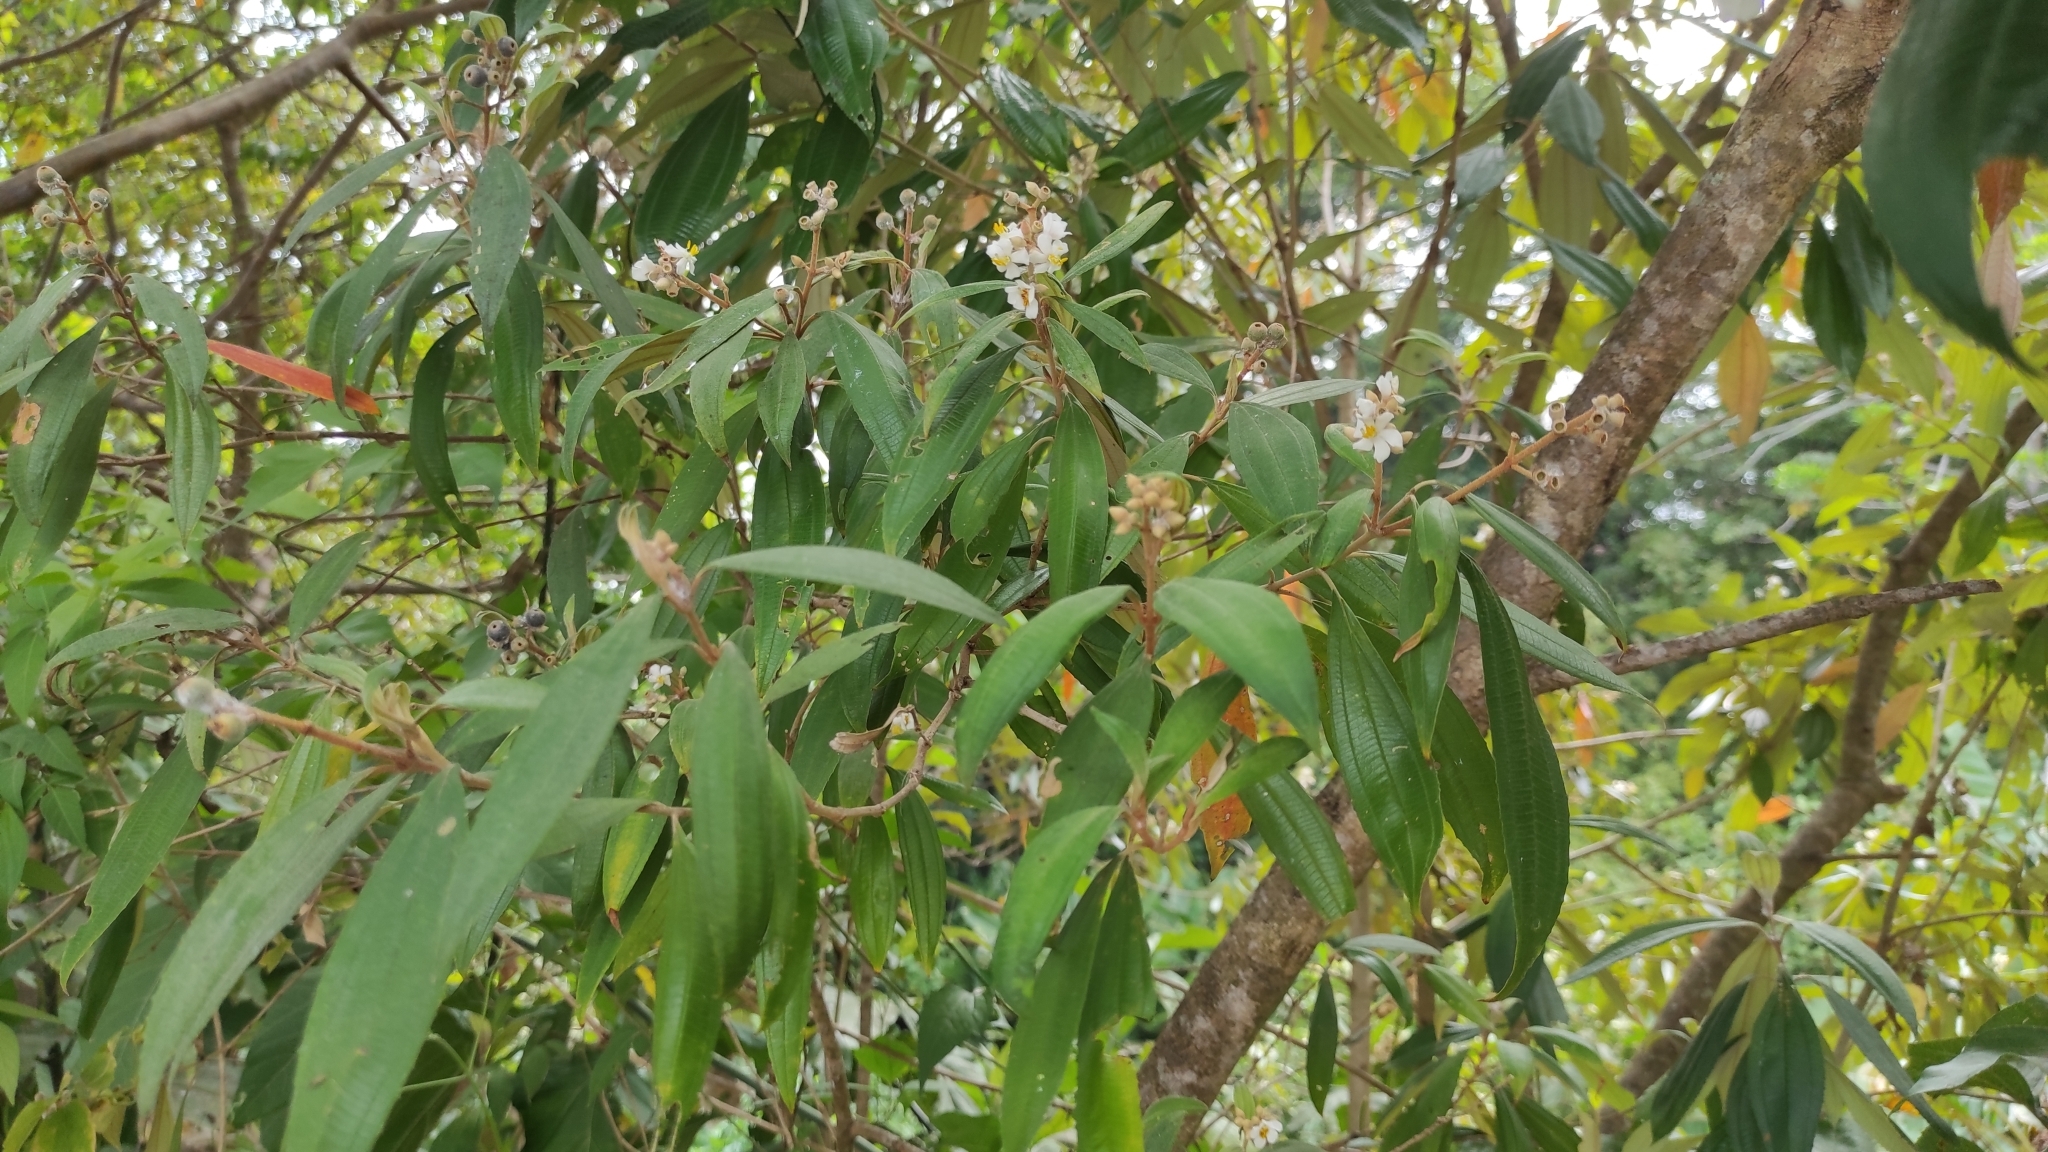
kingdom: Plantae
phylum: Tracheophyta
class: Magnoliopsida
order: Myrtales
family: Melastomataceae
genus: Miconia
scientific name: Miconia xalapensis
